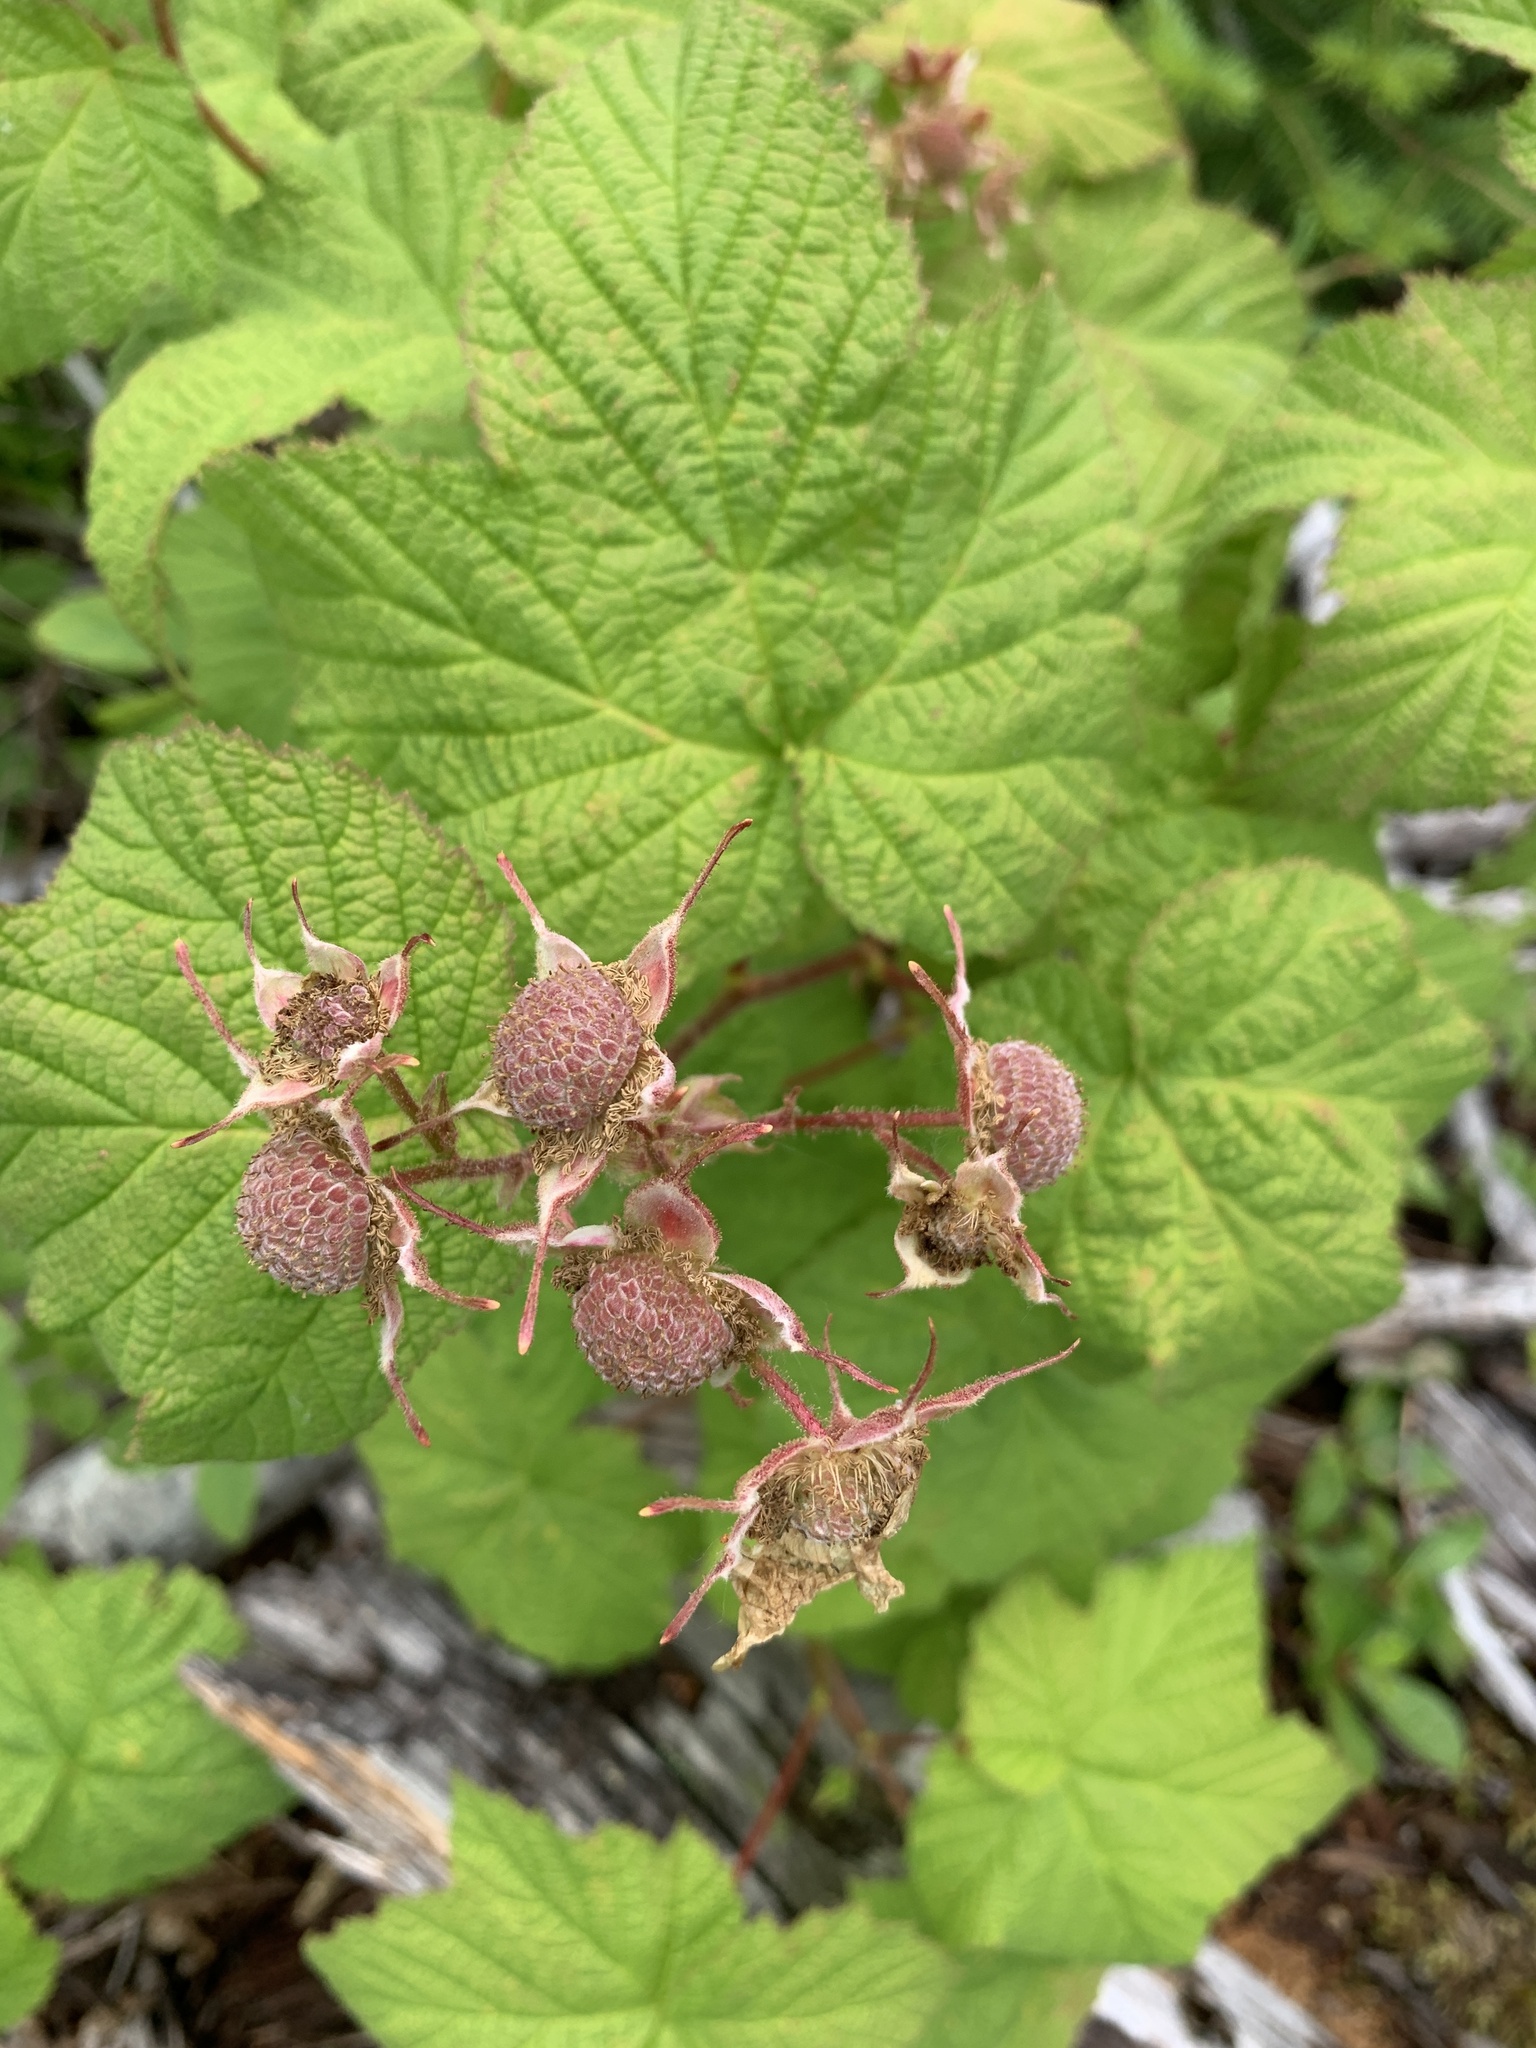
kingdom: Plantae
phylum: Tracheophyta
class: Magnoliopsida
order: Rosales
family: Rosaceae
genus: Rubus
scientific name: Rubus parviflorus
